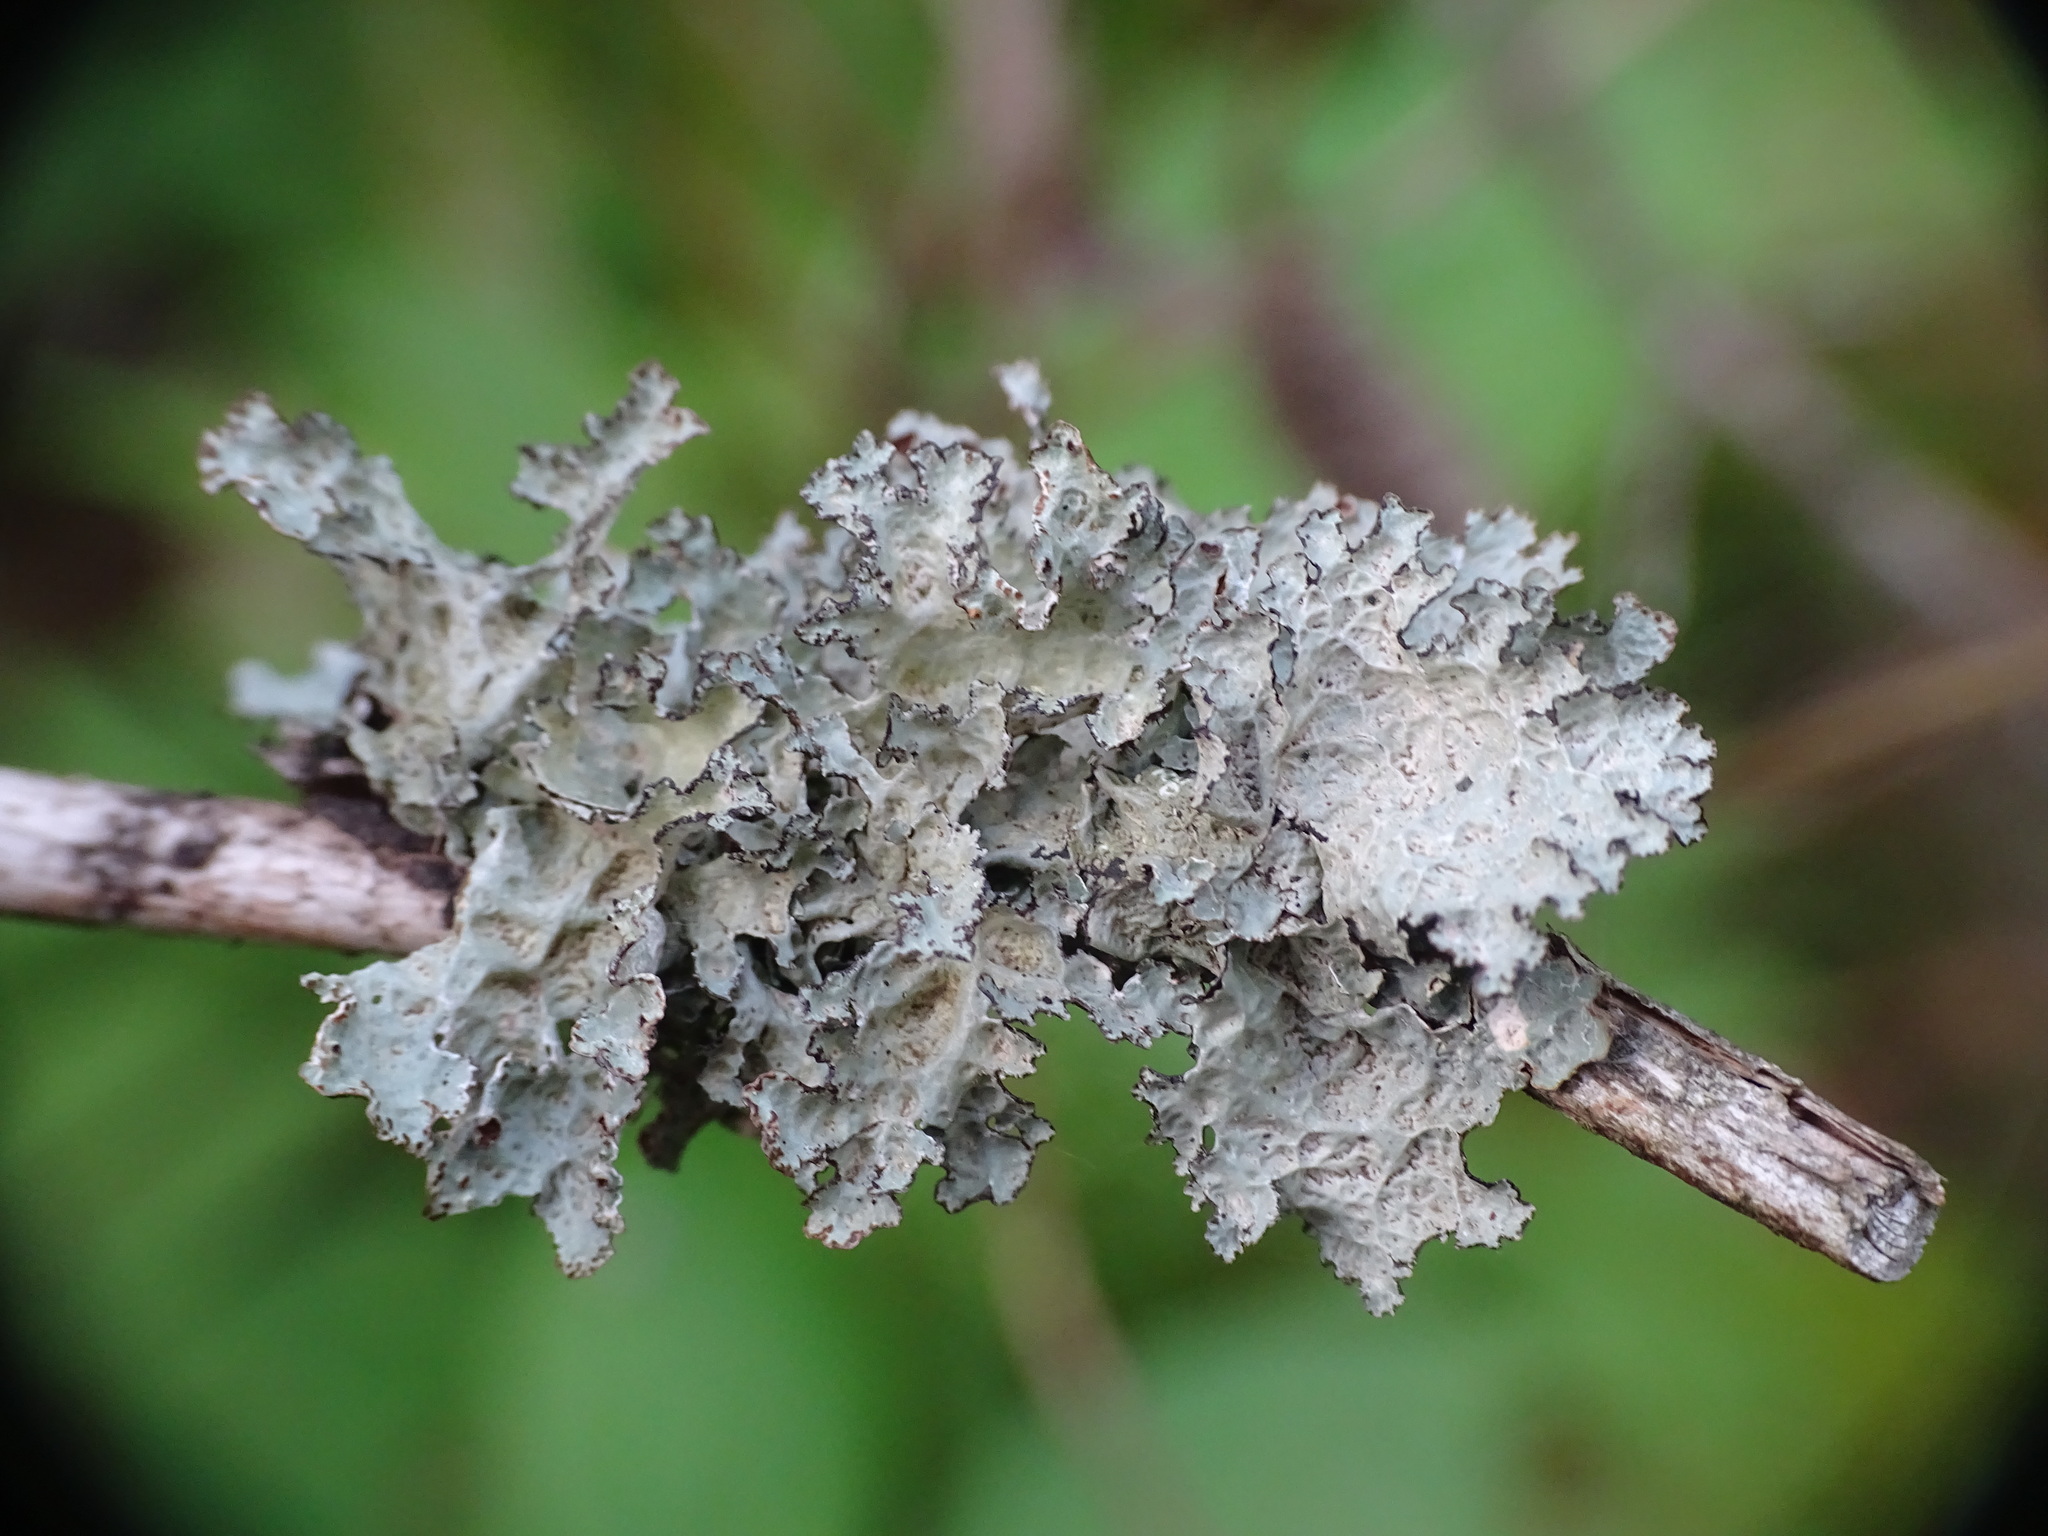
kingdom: Fungi
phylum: Ascomycota
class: Lecanoromycetes
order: Lecanorales
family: Parmeliaceae
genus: Platismatia
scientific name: Platismatia tuckermanii
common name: Crumpled rag lichen
